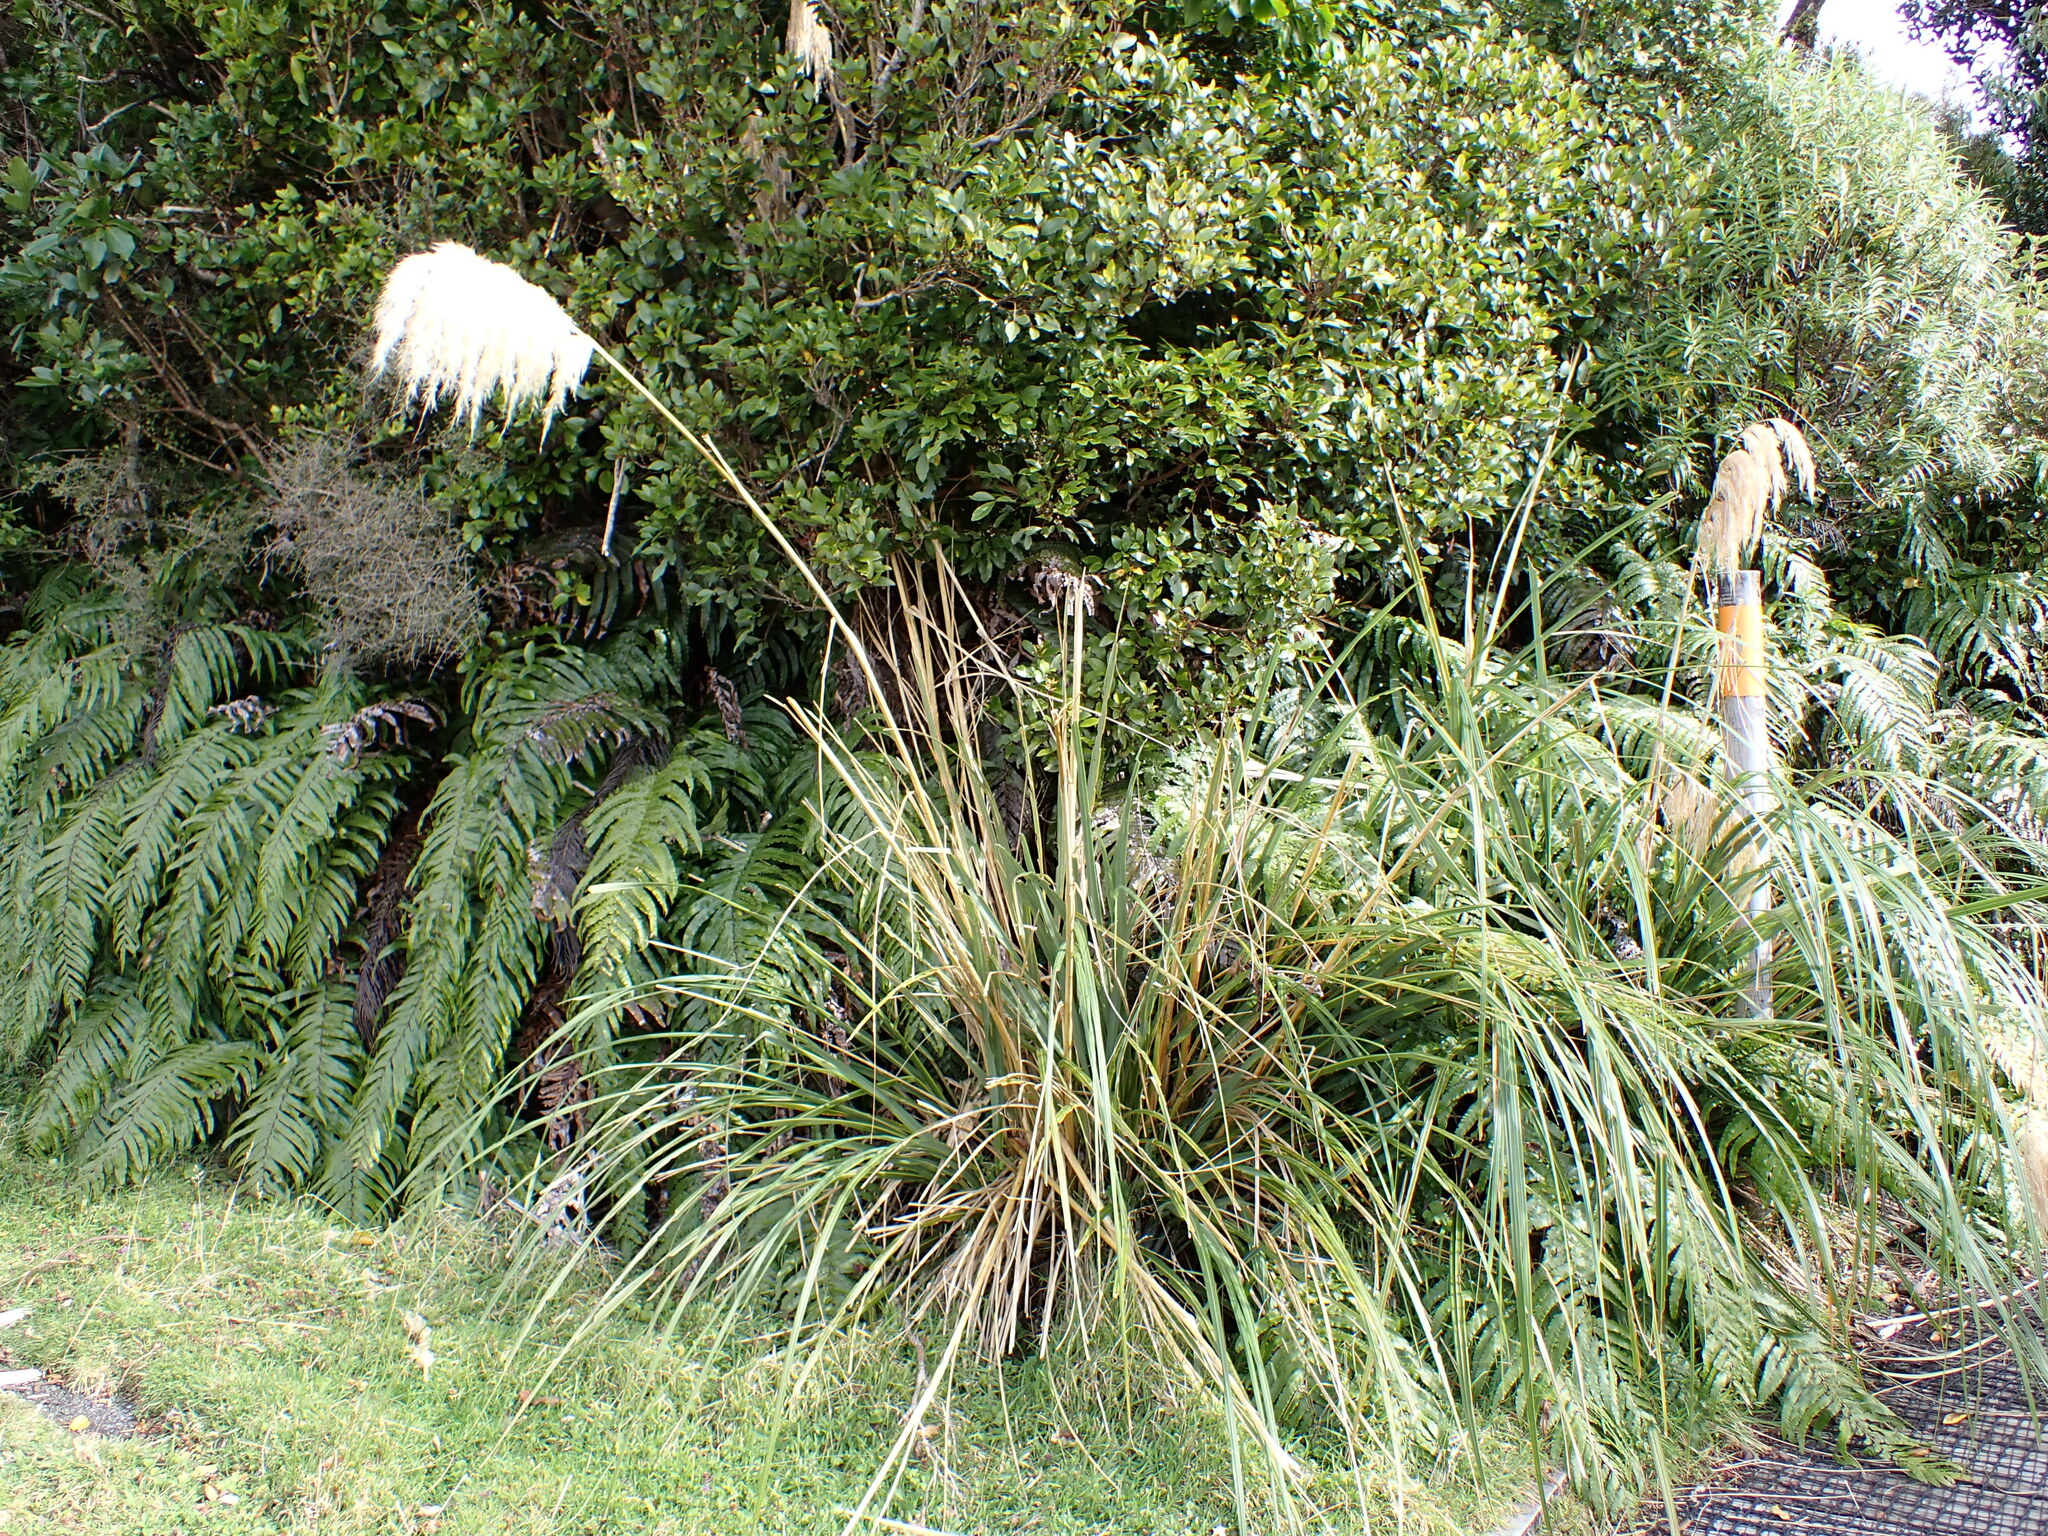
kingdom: Plantae
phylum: Tracheophyta
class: Liliopsida
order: Poales
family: Poaceae
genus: Austroderia
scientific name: Austroderia fulvida
